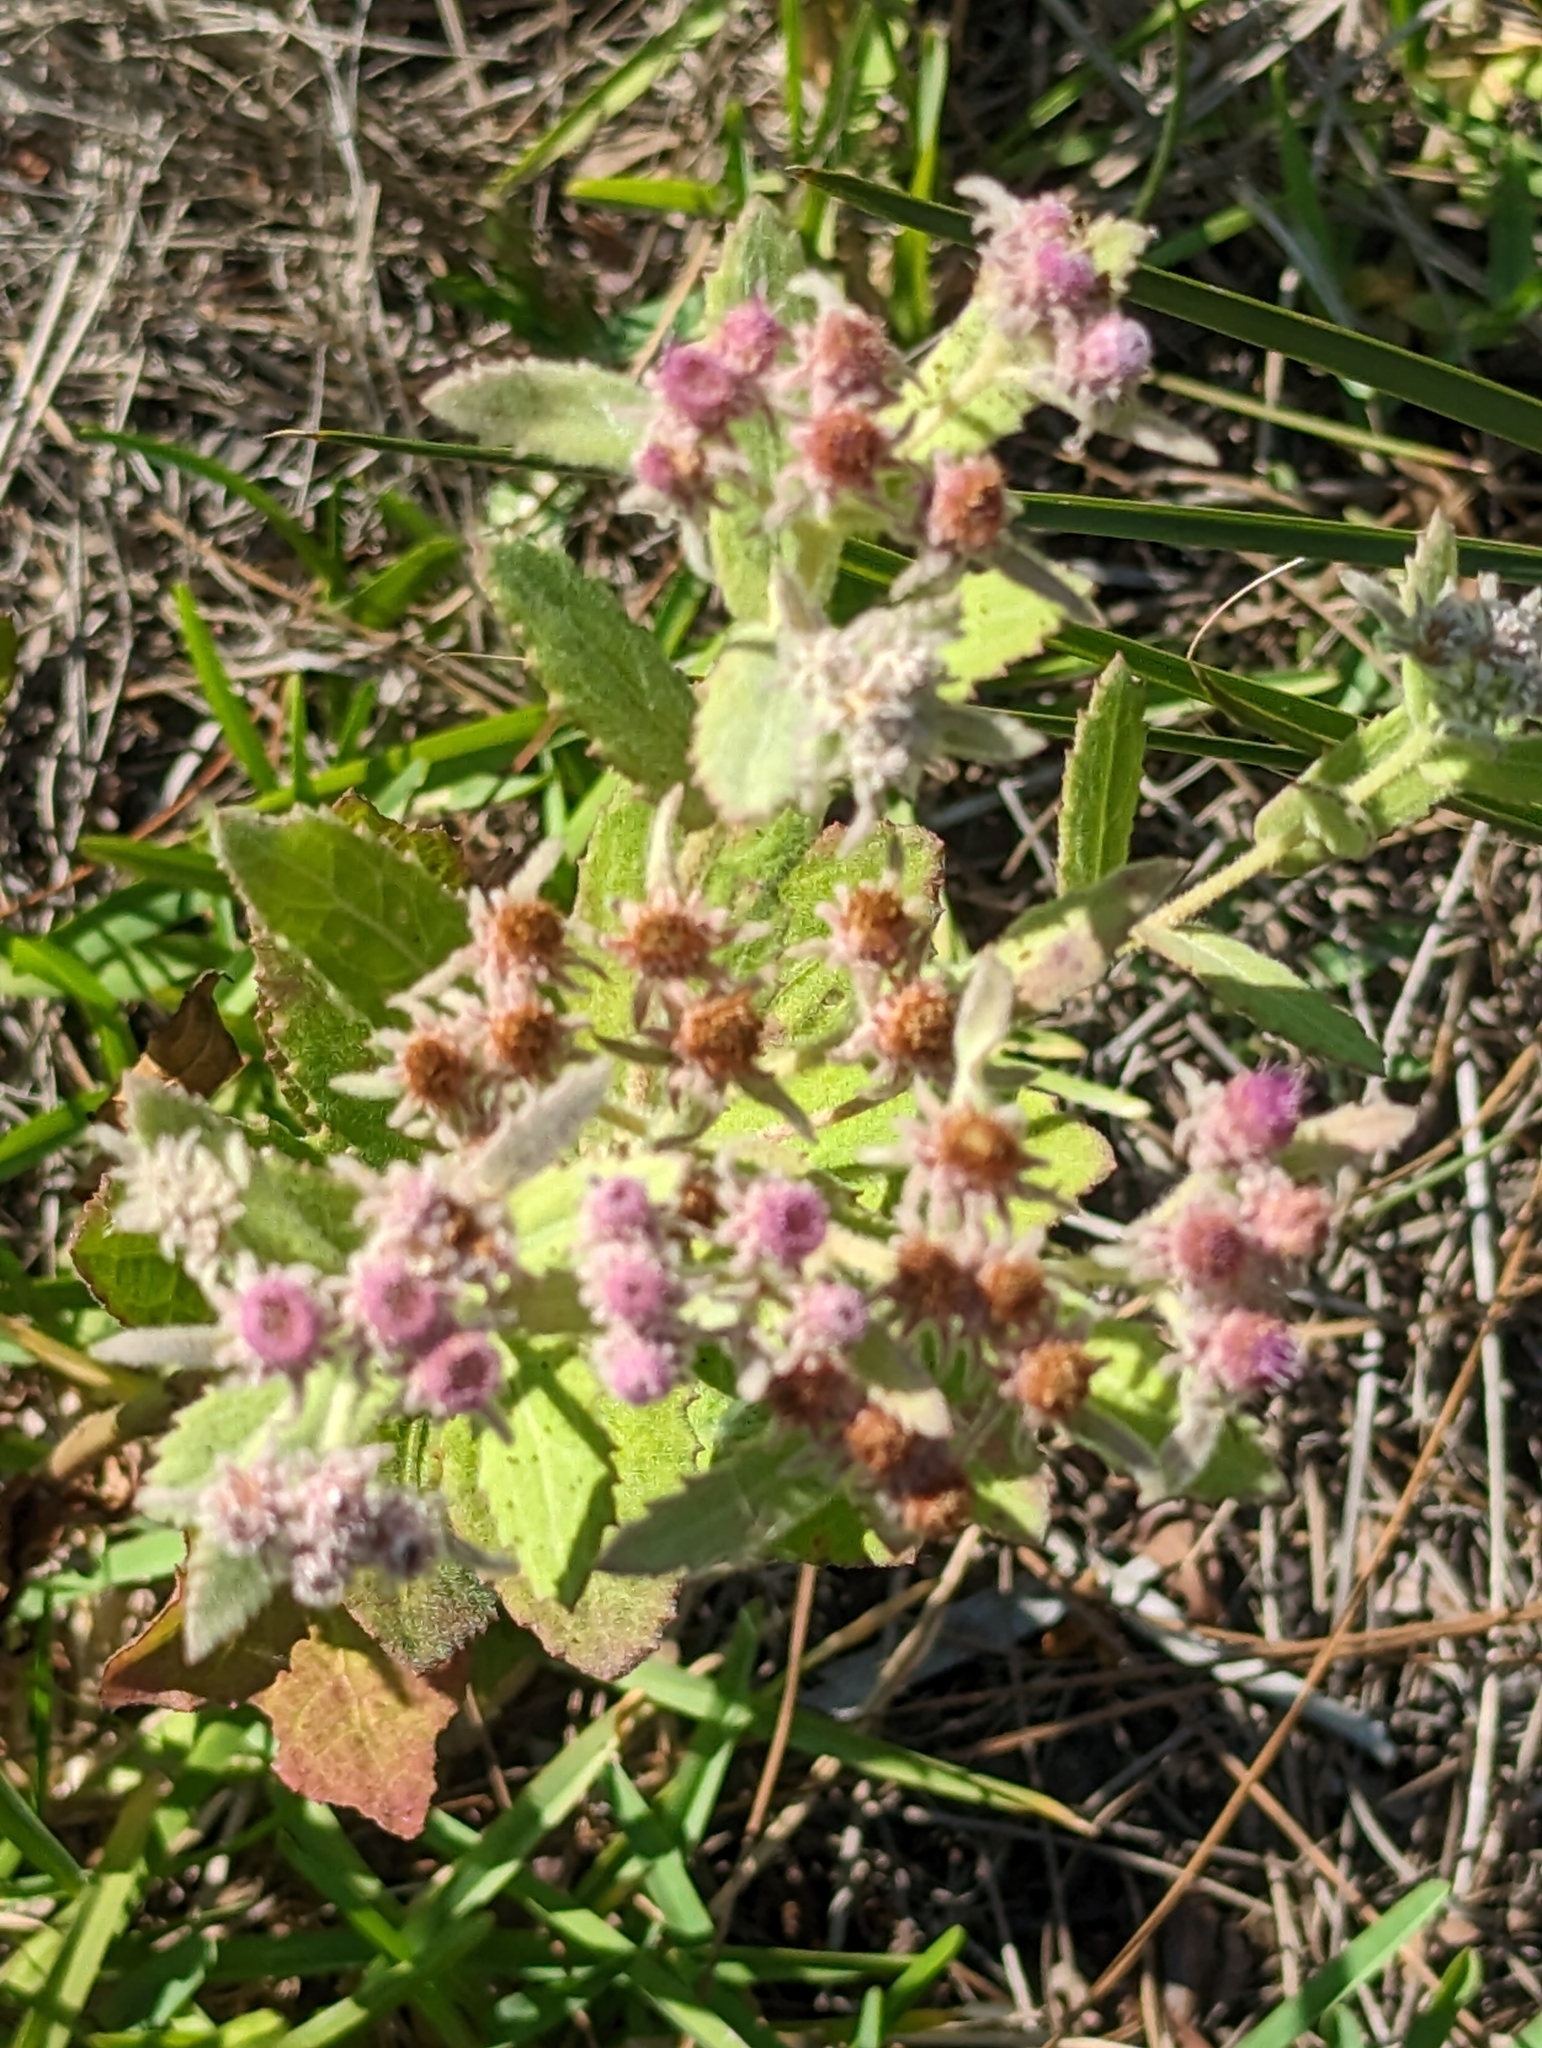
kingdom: Plantae
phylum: Tracheophyta
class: Magnoliopsida
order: Asterales
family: Asteraceae
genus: Pluchea
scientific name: Pluchea baccharis
